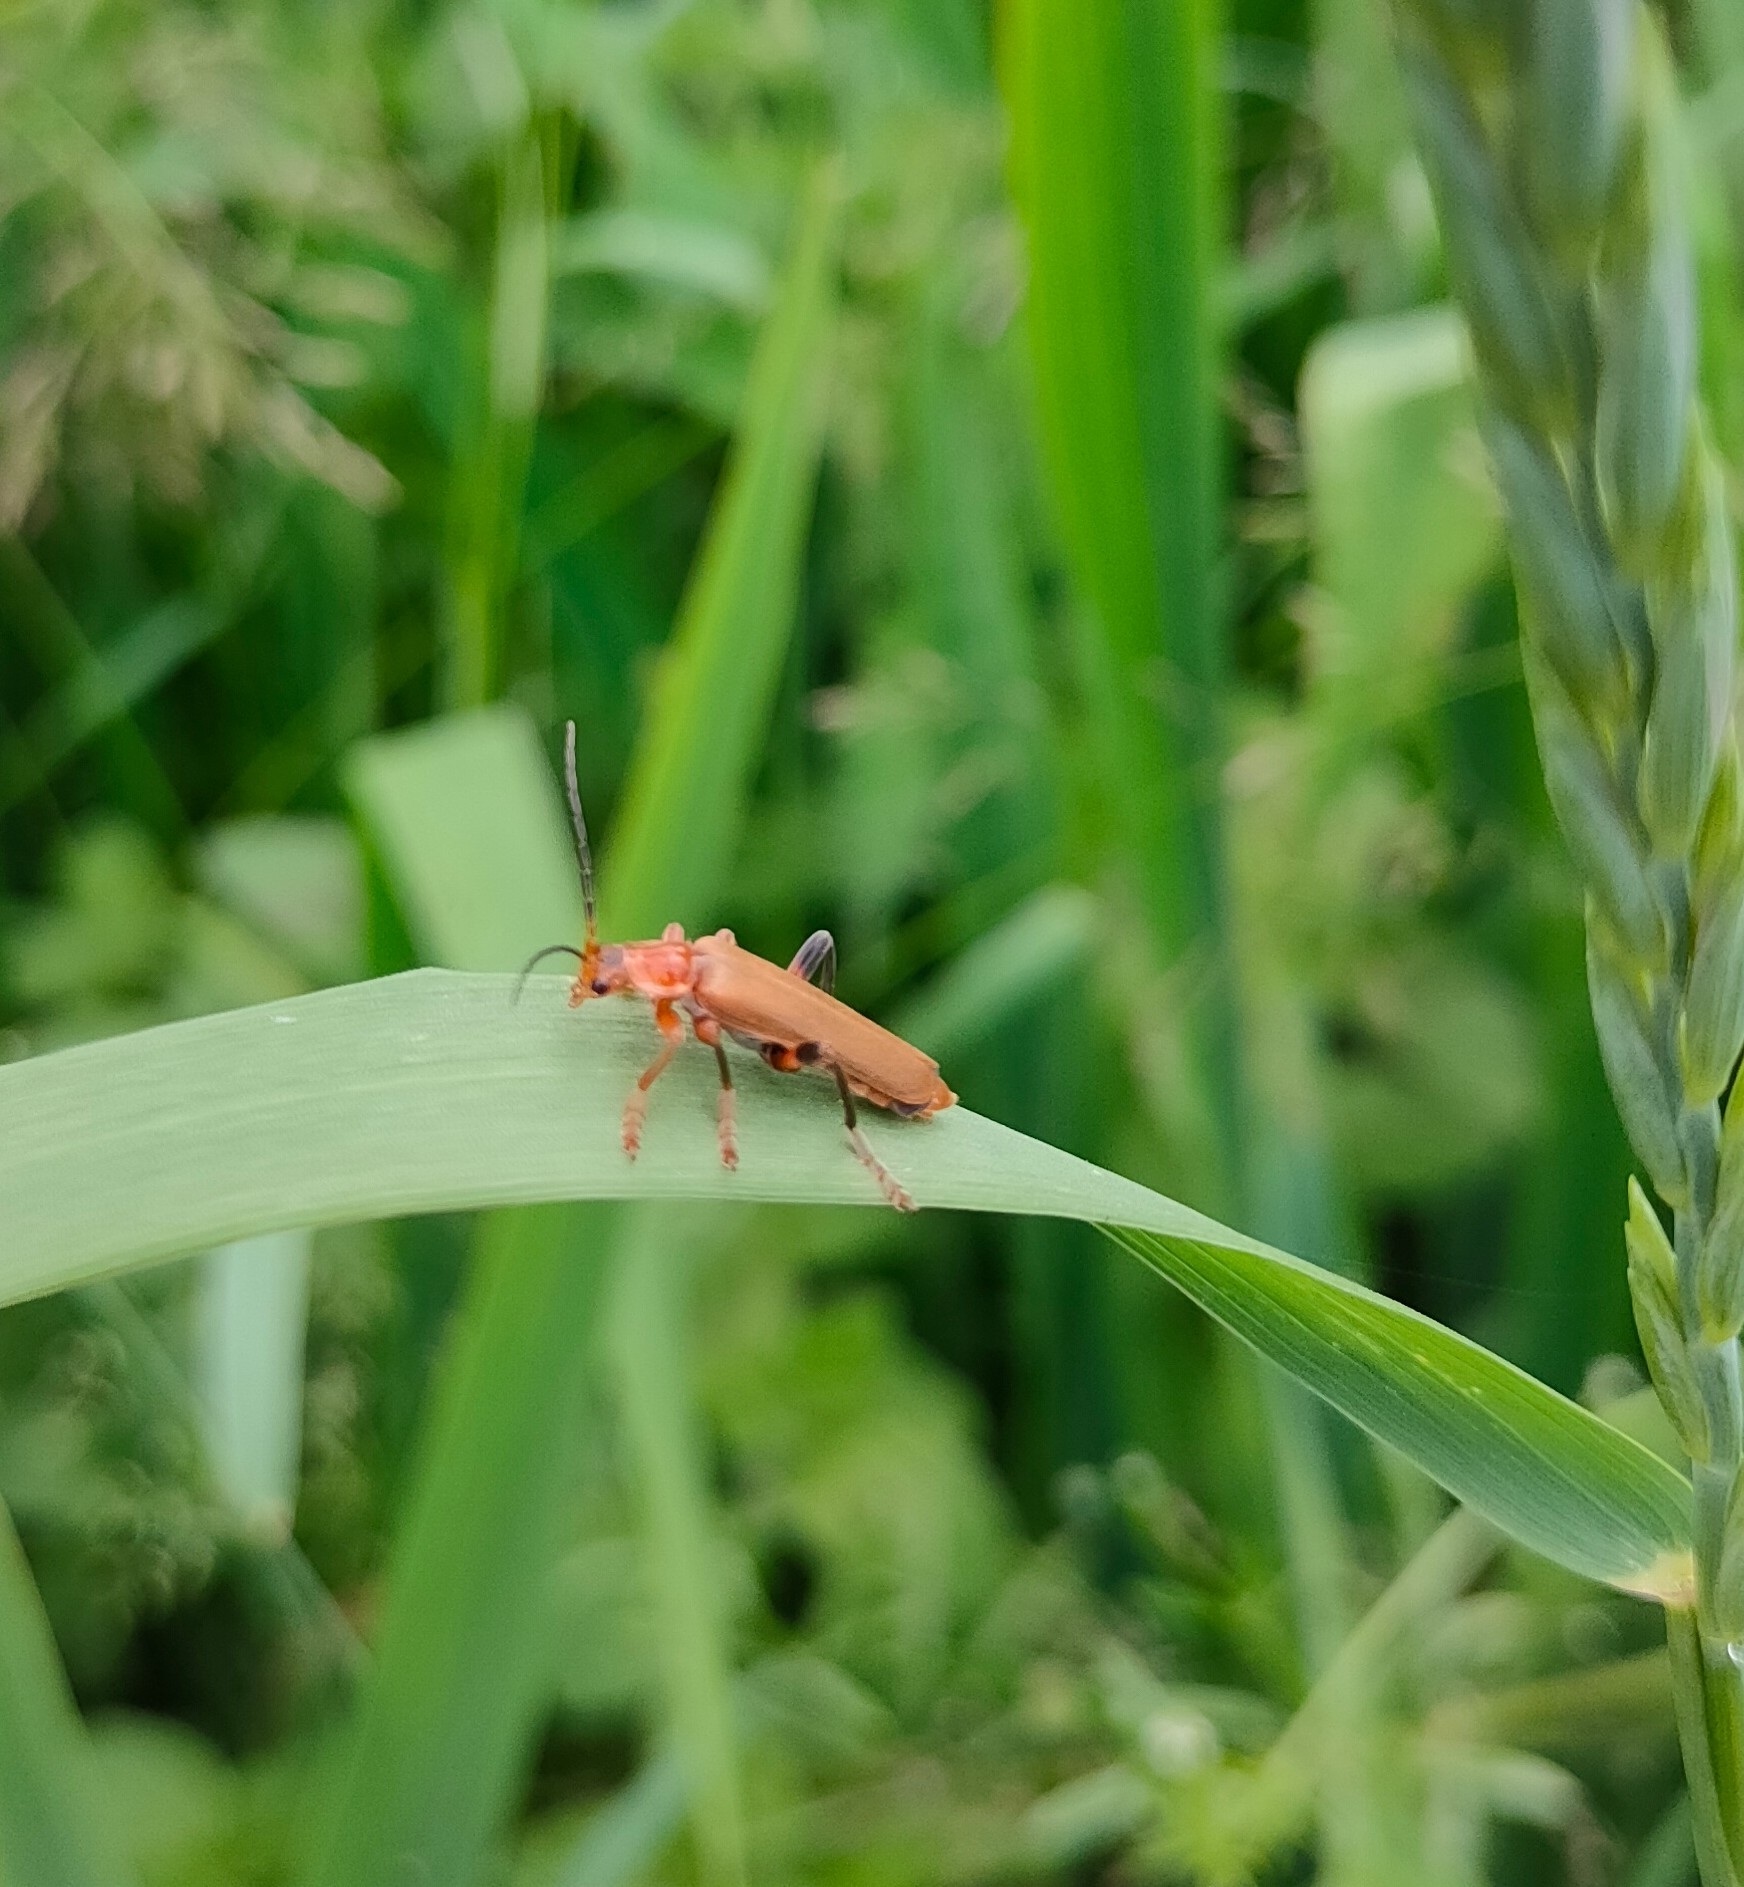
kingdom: Animalia
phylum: Arthropoda
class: Insecta
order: Coleoptera
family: Cantharidae
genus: Cantharis
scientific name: Cantharis livida
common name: Livid soldier beetle
